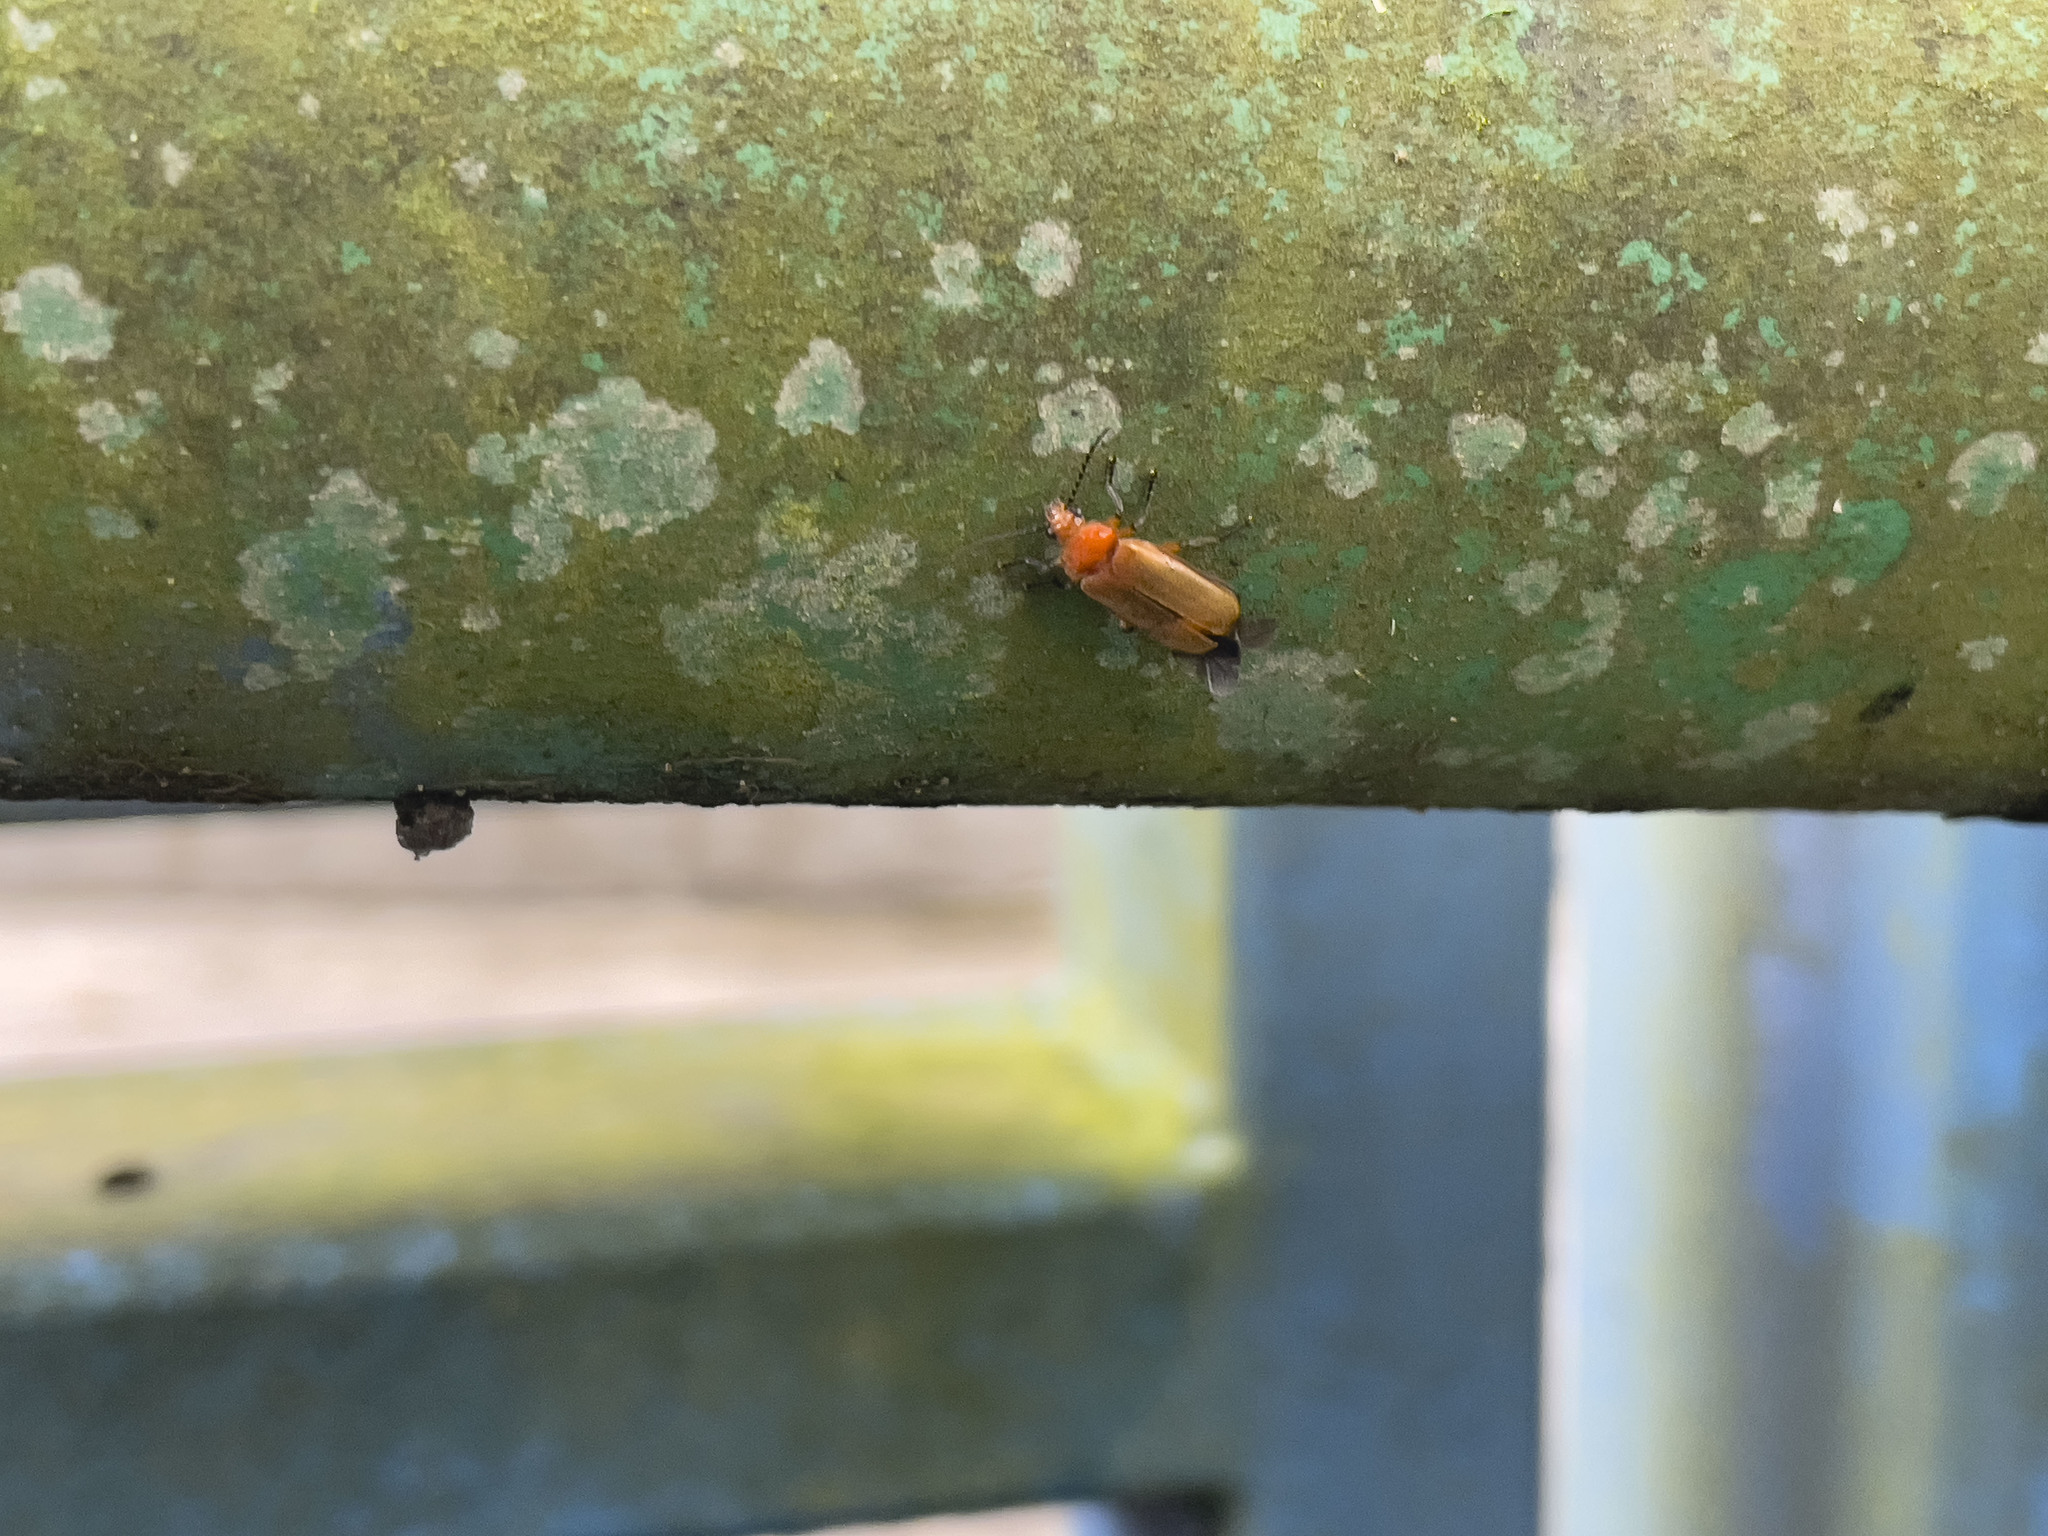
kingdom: Animalia
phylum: Arthropoda
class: Insecta
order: Coleoptera
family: Cantharidae
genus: Macrosilis
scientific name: Macrosilis
